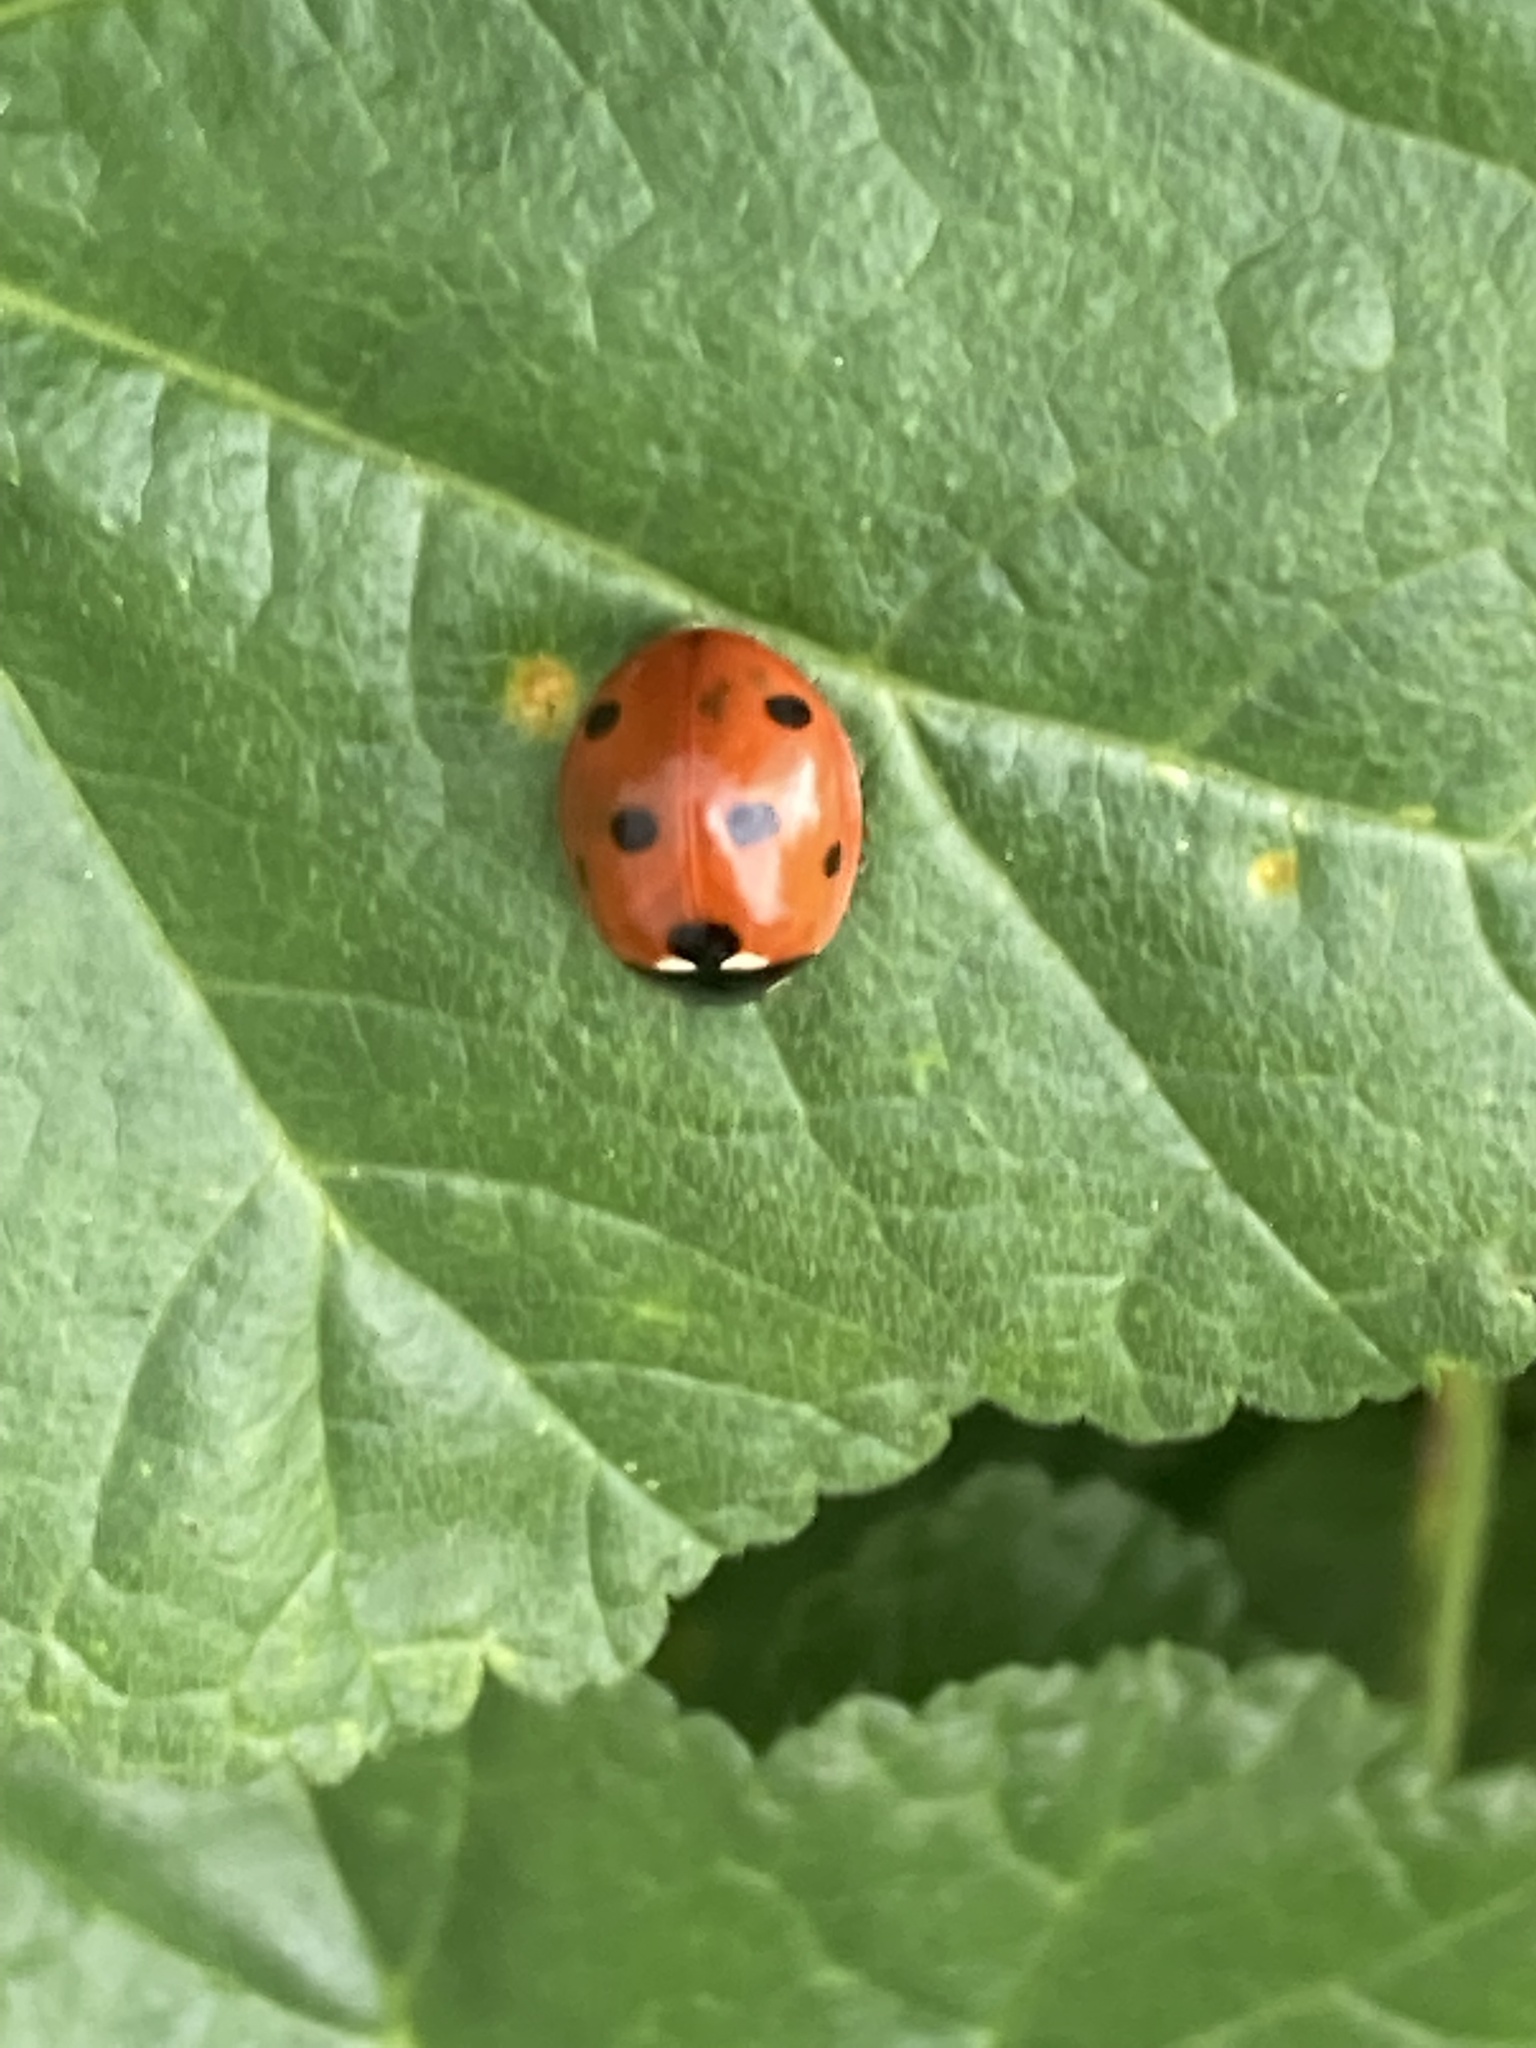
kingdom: Animalia
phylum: Arthropoda
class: Insecta
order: Coleoptera
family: Coccinellidae
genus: Coccinella
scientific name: Coccinella septempunctata
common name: Sevenspotted lady beetle
